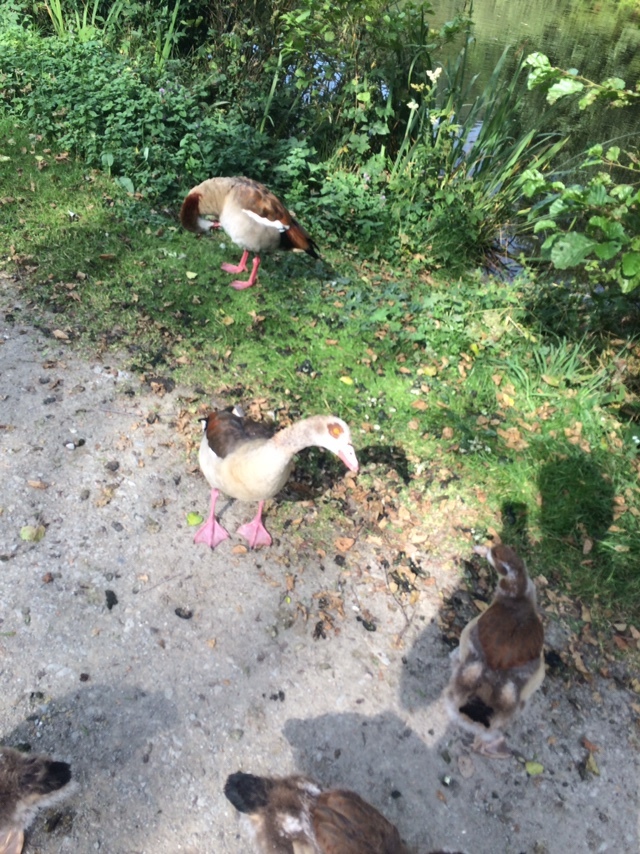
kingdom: Animalia
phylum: Chordata
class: Aves
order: Anseriformes
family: Anatidae
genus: Alopochen
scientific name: Alopochen aegyptiaca
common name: Egyptian goose
